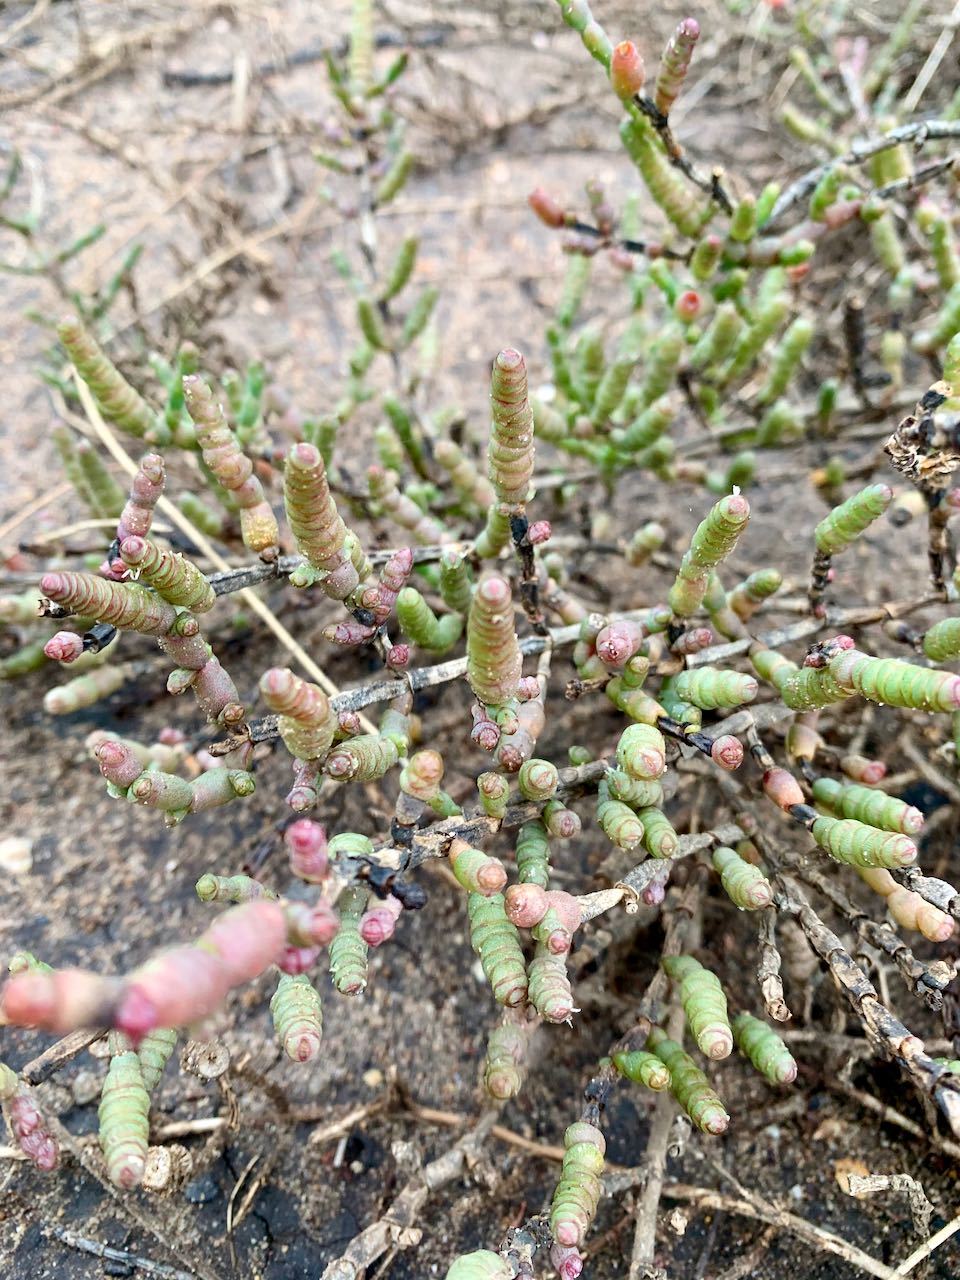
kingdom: Plantae
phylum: Tracheophyta
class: Magnoliopsida
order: Caryophyllales
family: Amaranthaceae
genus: Tecticornia
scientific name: Tecticornia pergranulata
